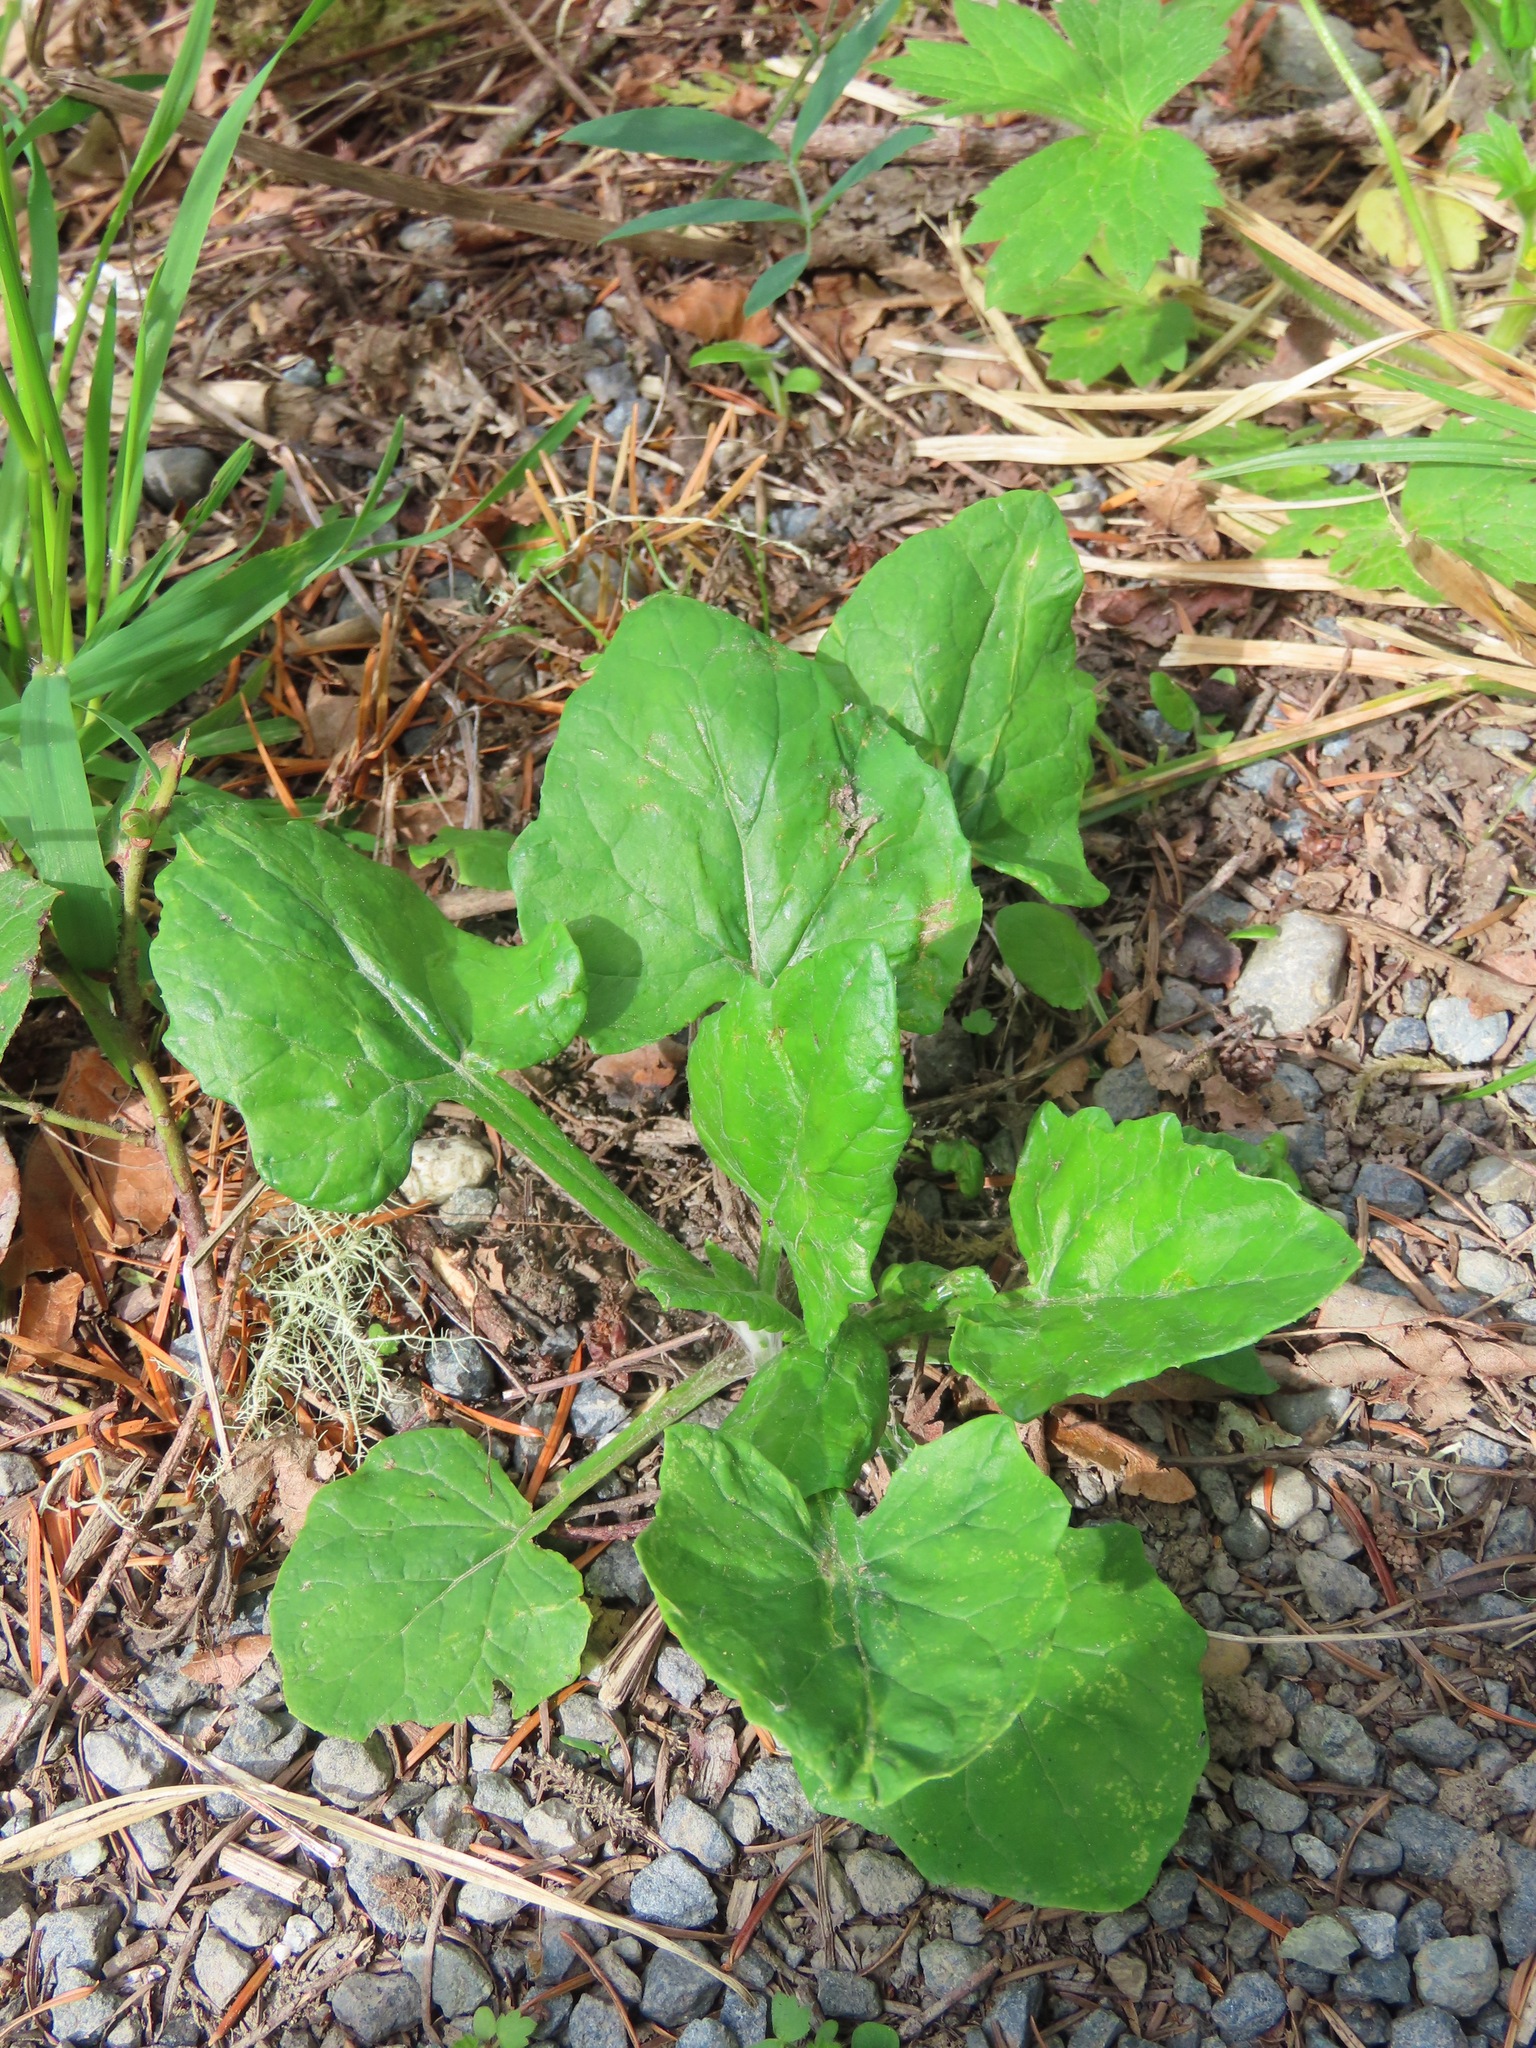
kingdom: Plantae
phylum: Tracheophyta
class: Magnoliopsida
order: Asterales
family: Asteraceae
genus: Adenocaulon
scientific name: Adenocaulon bicolor
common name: Trailplant
